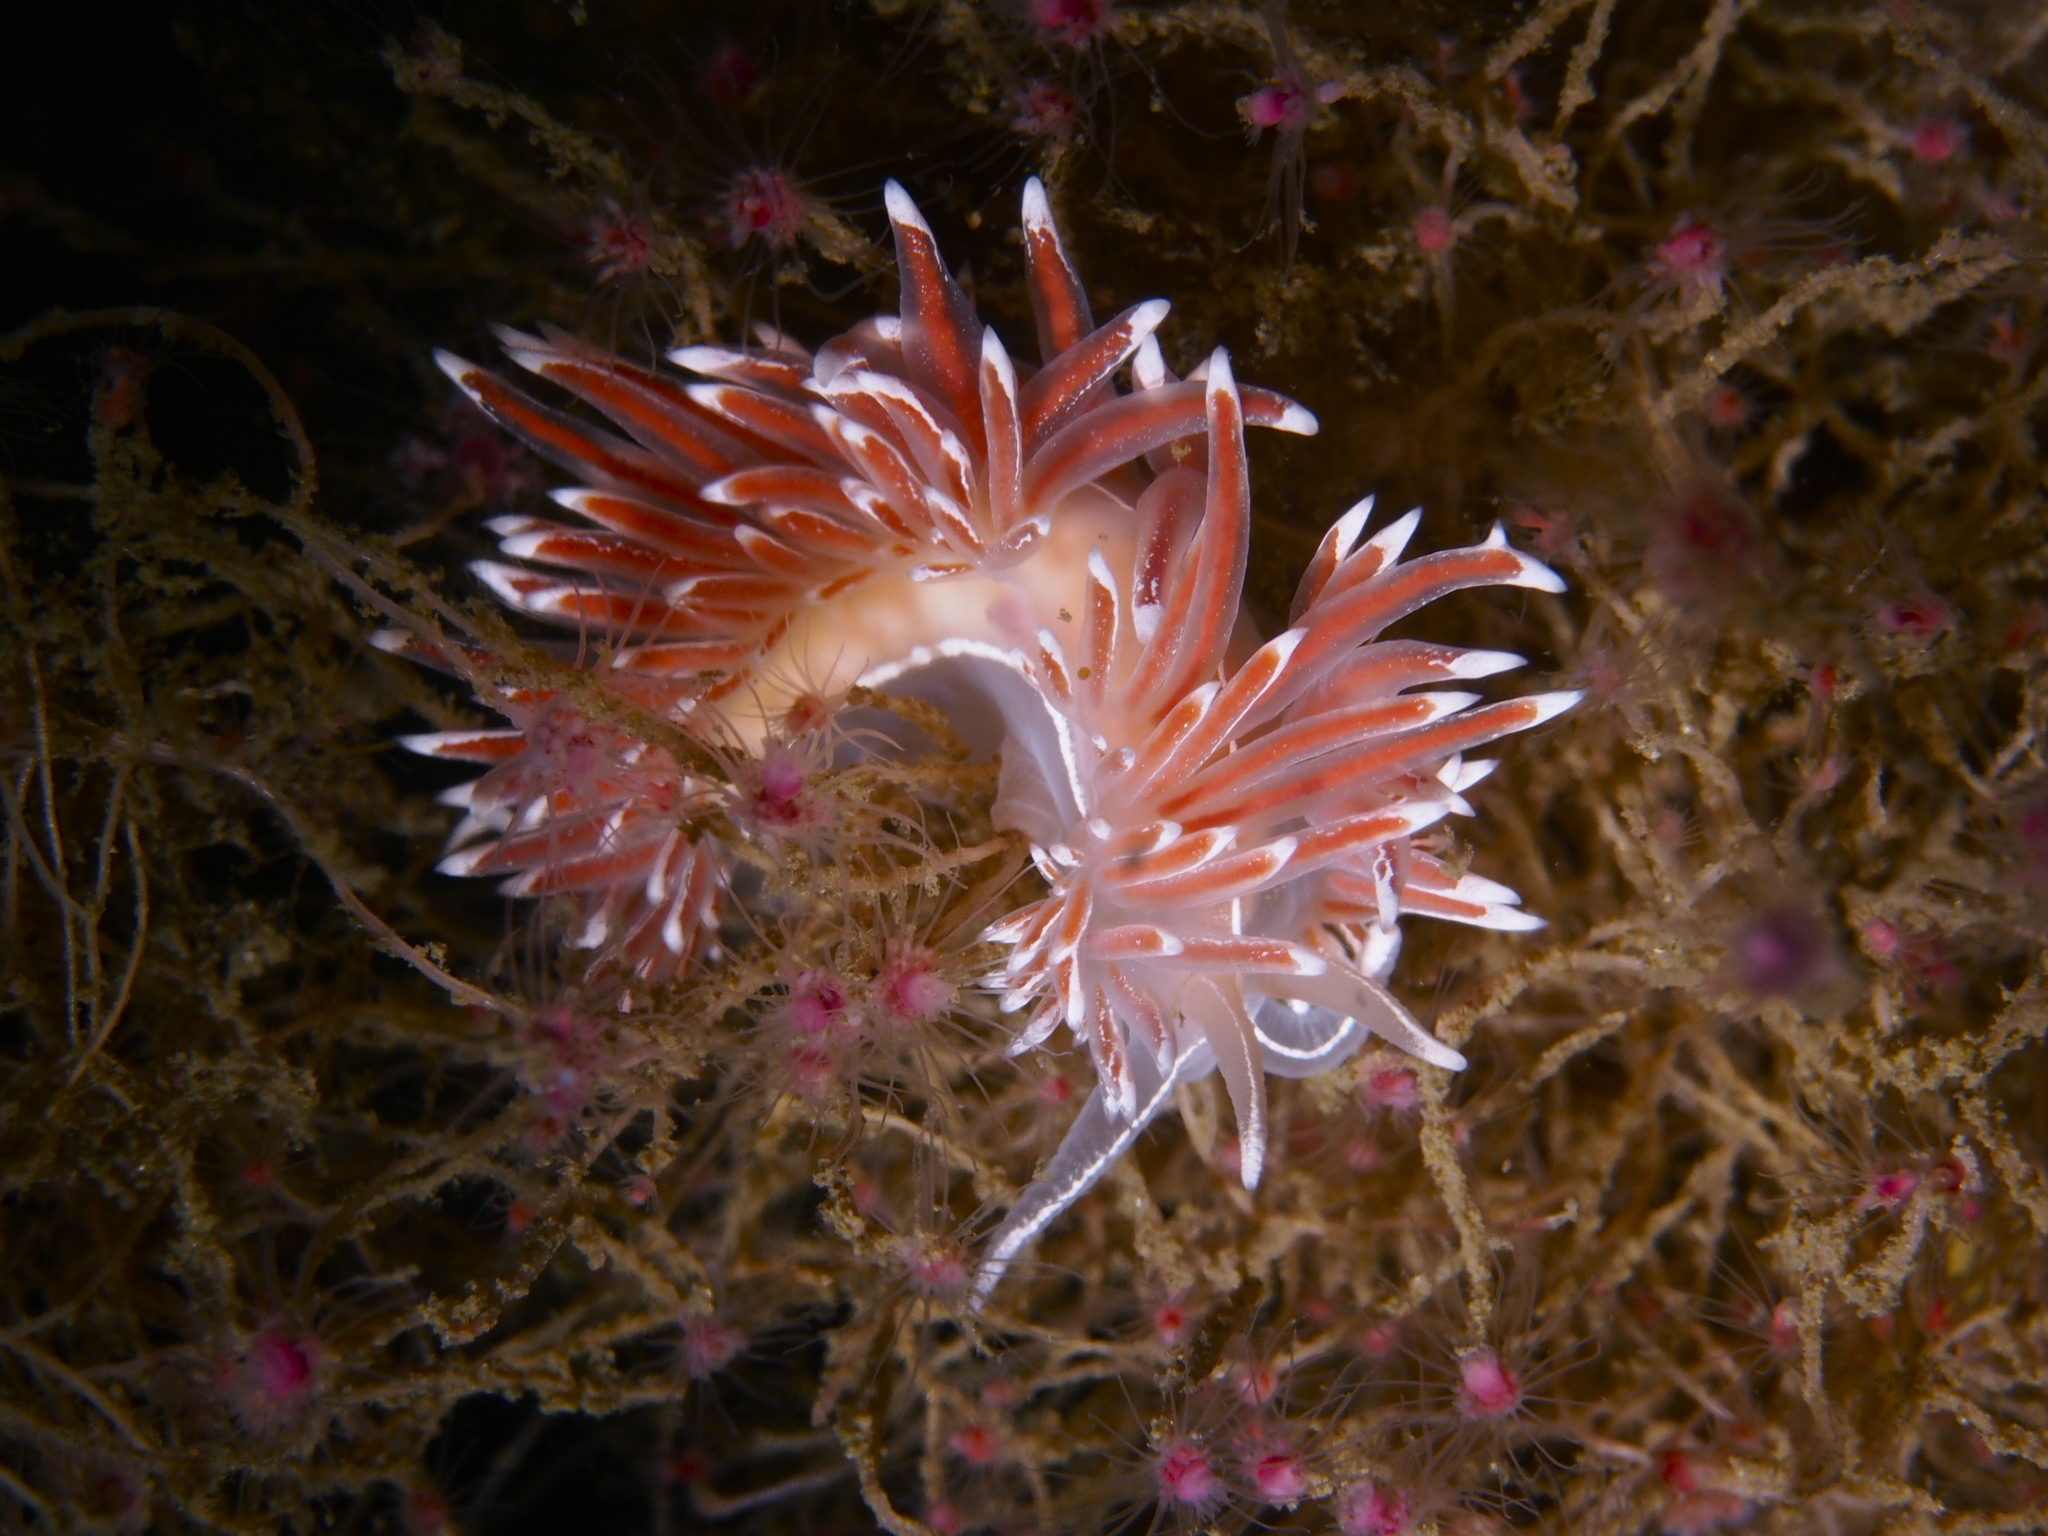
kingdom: Animalia
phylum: Mollusca
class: Gastropoda
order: Nudibranchia
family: Coryphellidae
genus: Coryphella
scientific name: Coryphella lineata
